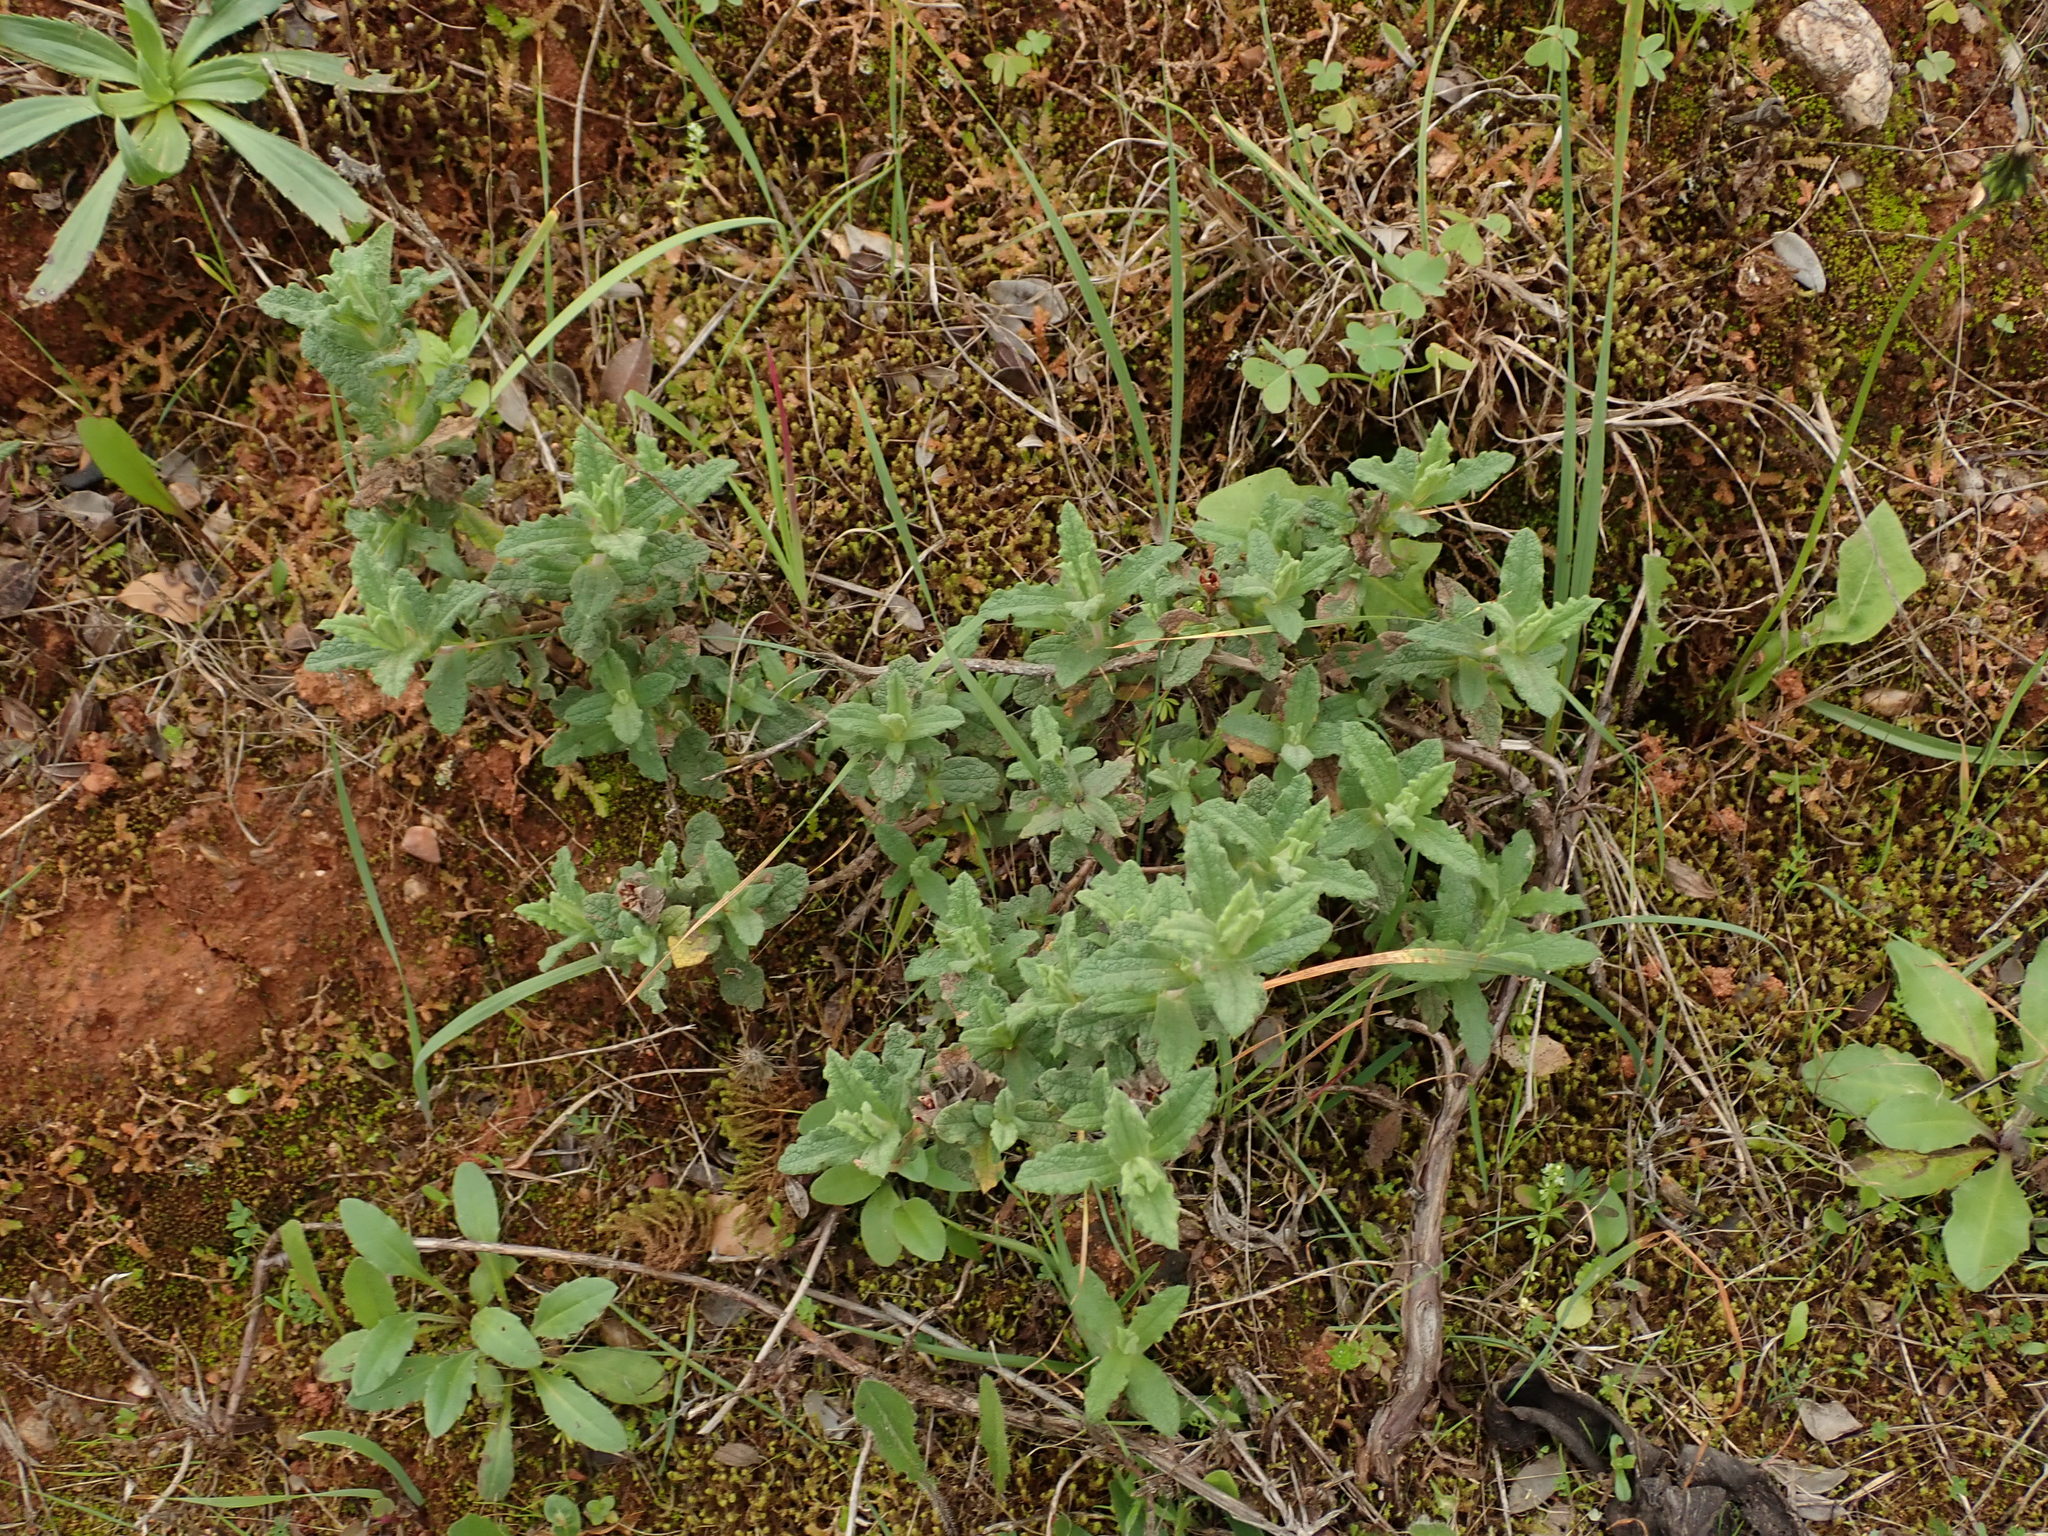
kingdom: Plantae
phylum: Tracheophyta
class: Magnoliopsida
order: Malvales
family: Cistaceae
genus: Cistus
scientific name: Cistus crispus
